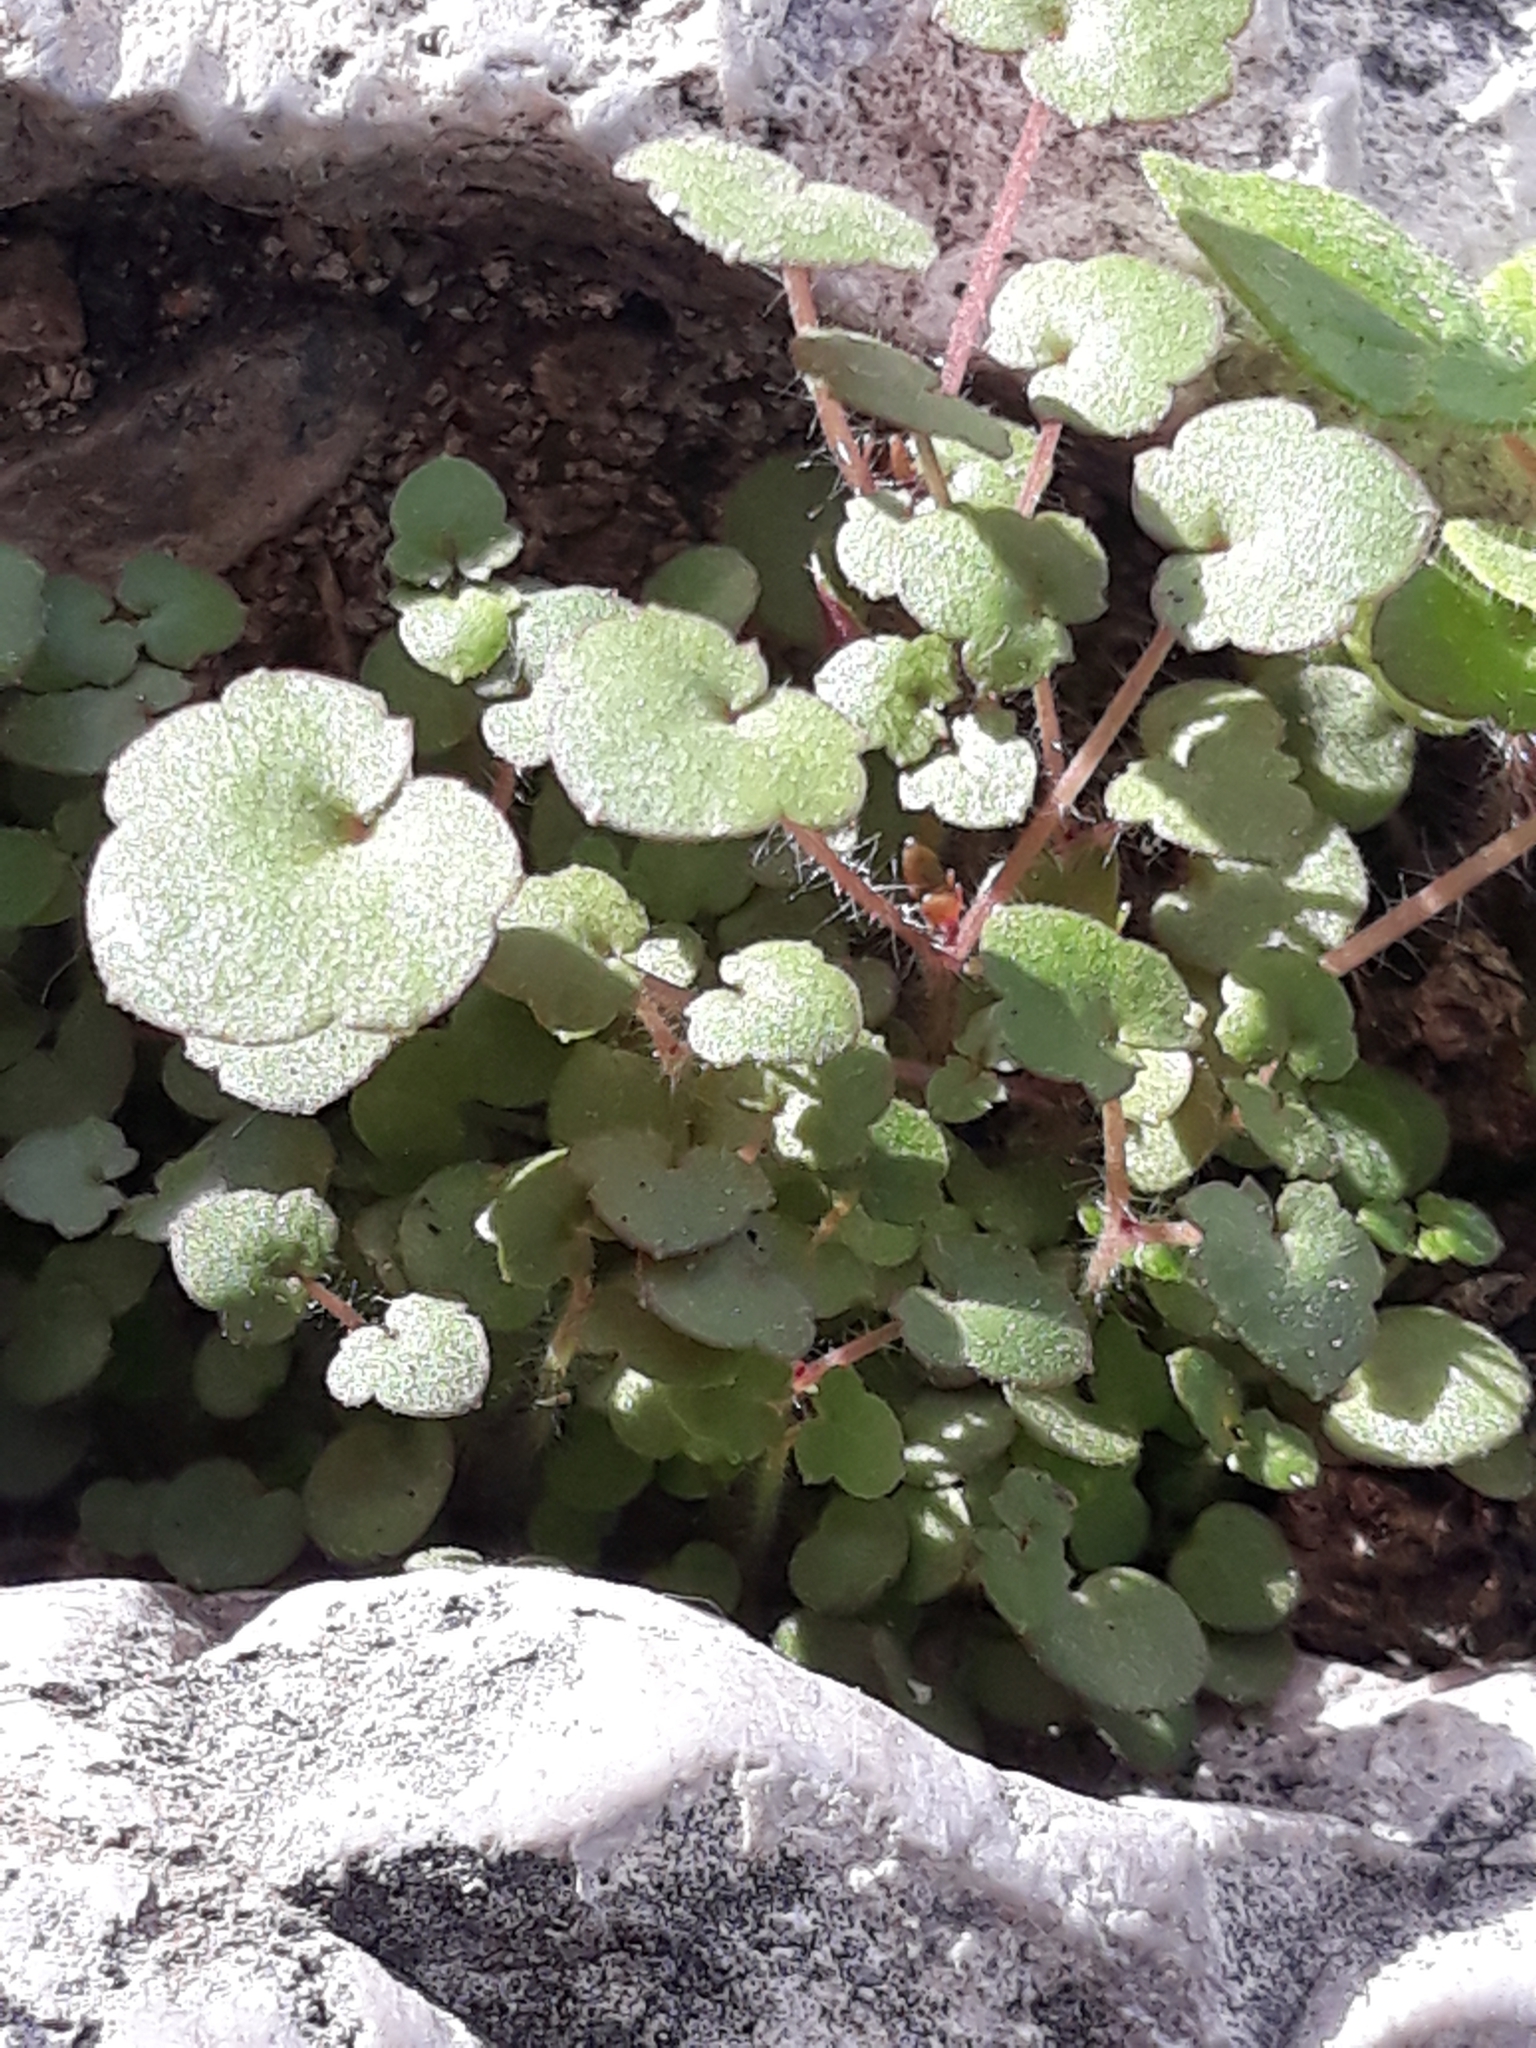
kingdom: Plantae
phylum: Tracheophyta
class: Magnoliopsida
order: Lamiales
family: Plantaginaceae
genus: Cymbalaria
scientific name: Cymbalaria muralis
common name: Ivy-leaved toadflax
